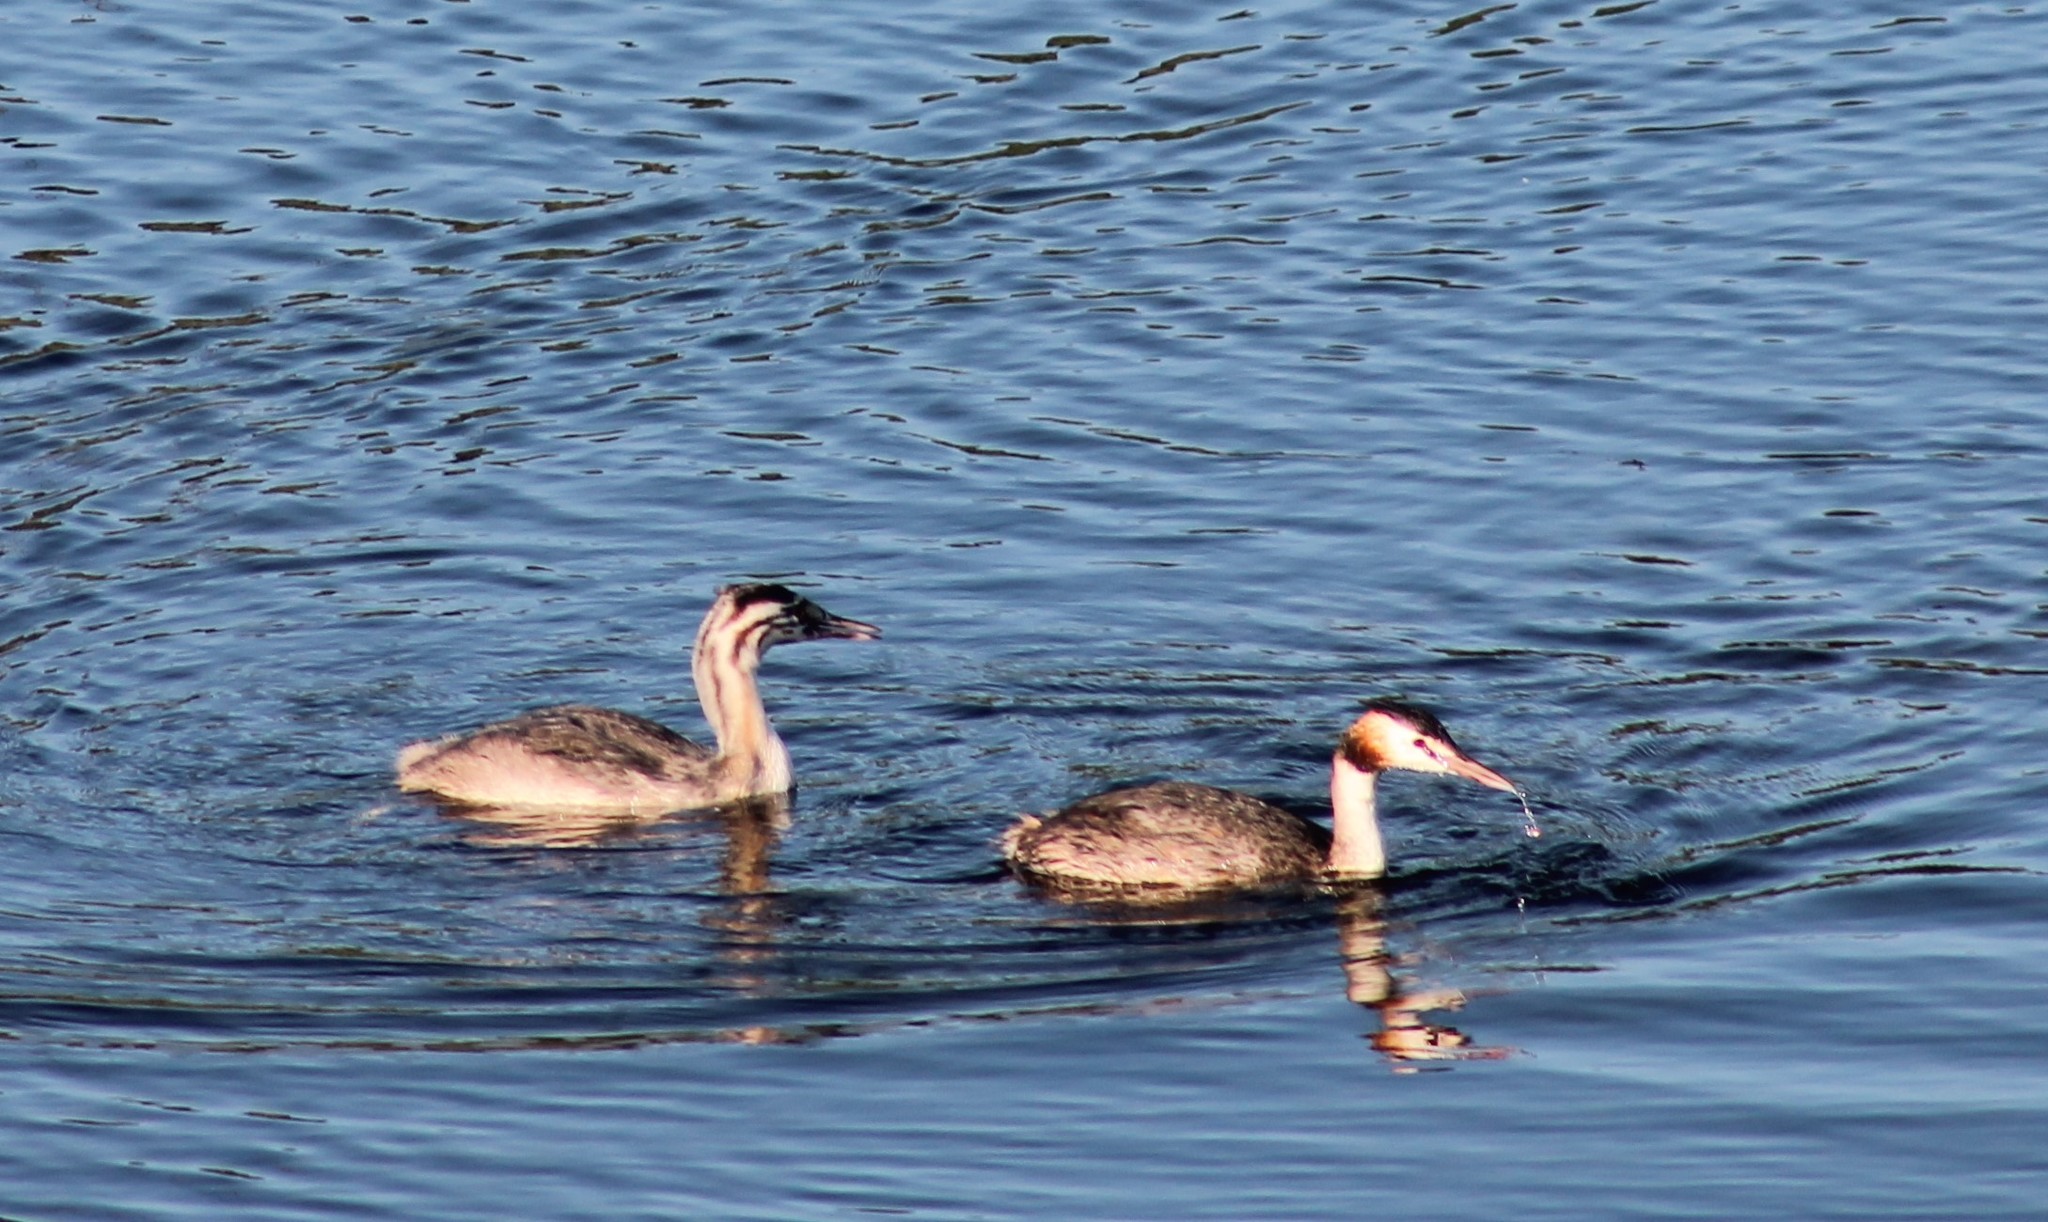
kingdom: Animalia
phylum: Chordata
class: Aves
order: Podicipediformes
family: Podicipedidae
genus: Podiceps
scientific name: Podiceps cristatus
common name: Great crested grebe
